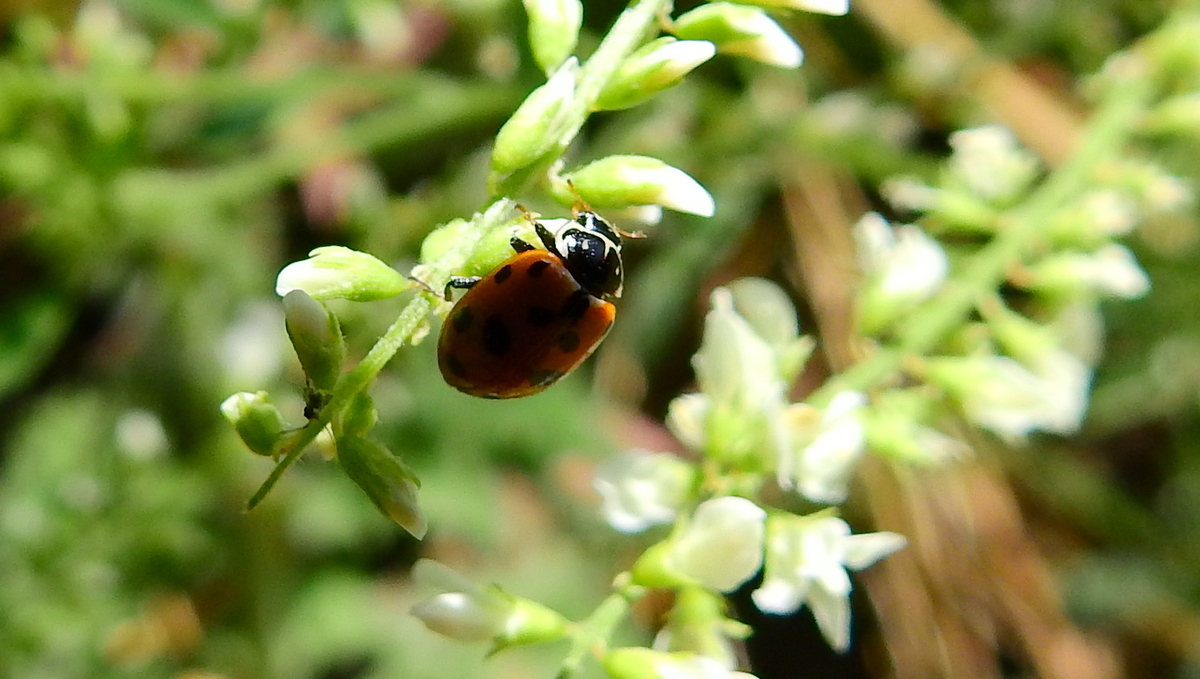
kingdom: Animalia
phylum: Arthropoda
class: Insecta
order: Coleoptera
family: Coccinellidae
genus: Hippodamia
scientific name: Hippodamia variegata
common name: Ladybird beetle
